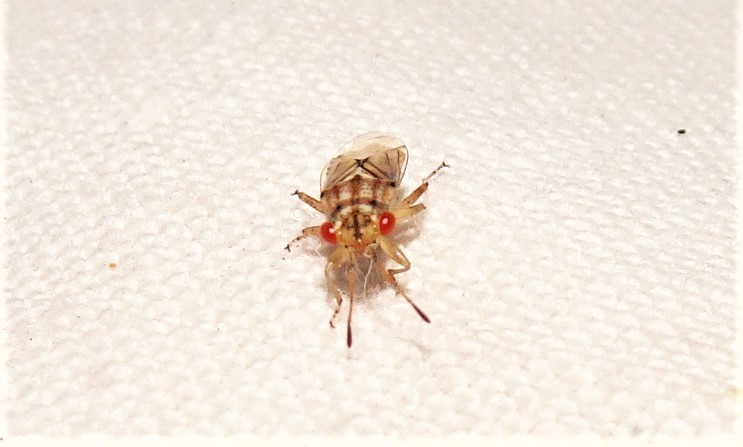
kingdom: Animalia
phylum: Arthropoda
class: Insecta
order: Hemiptera
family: Geocoridae
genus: Germalus
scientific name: Germalus lineolosus
